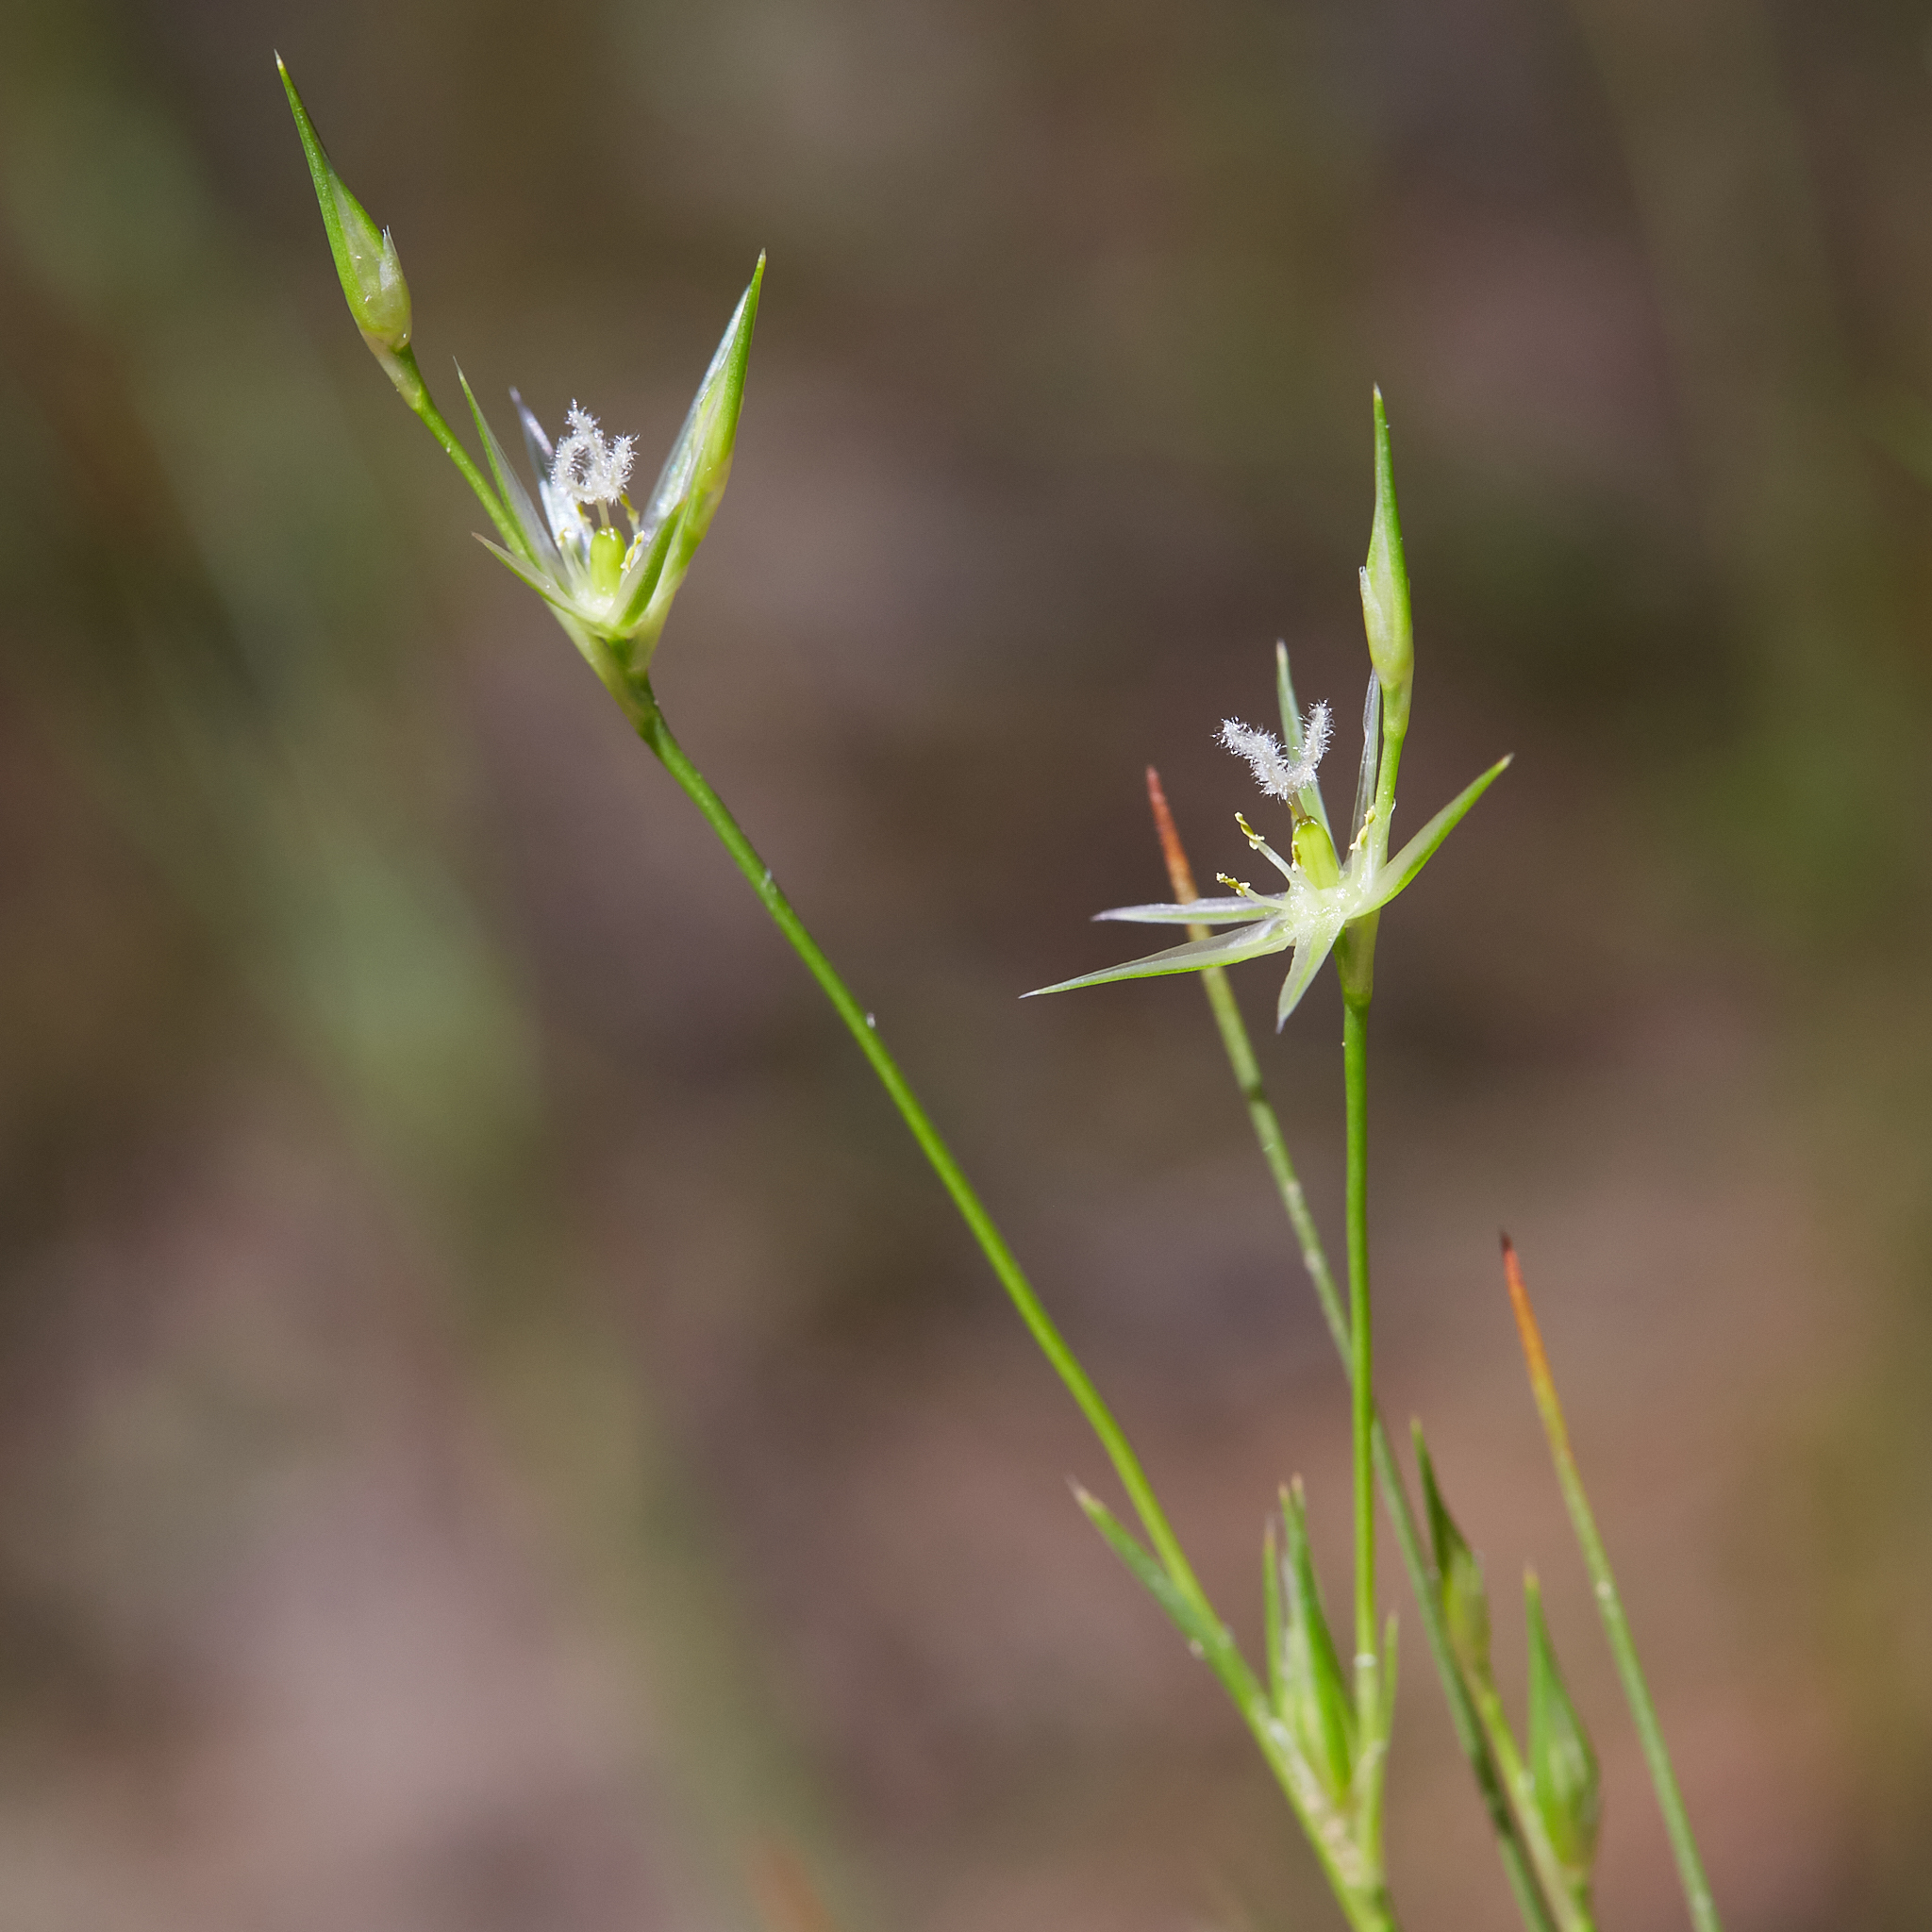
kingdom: Plantae
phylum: Tracheophyta
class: Liliopsida
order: Poales
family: Juncaceae
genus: Juncus
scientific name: Juncus bufonius
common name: Toad rush
